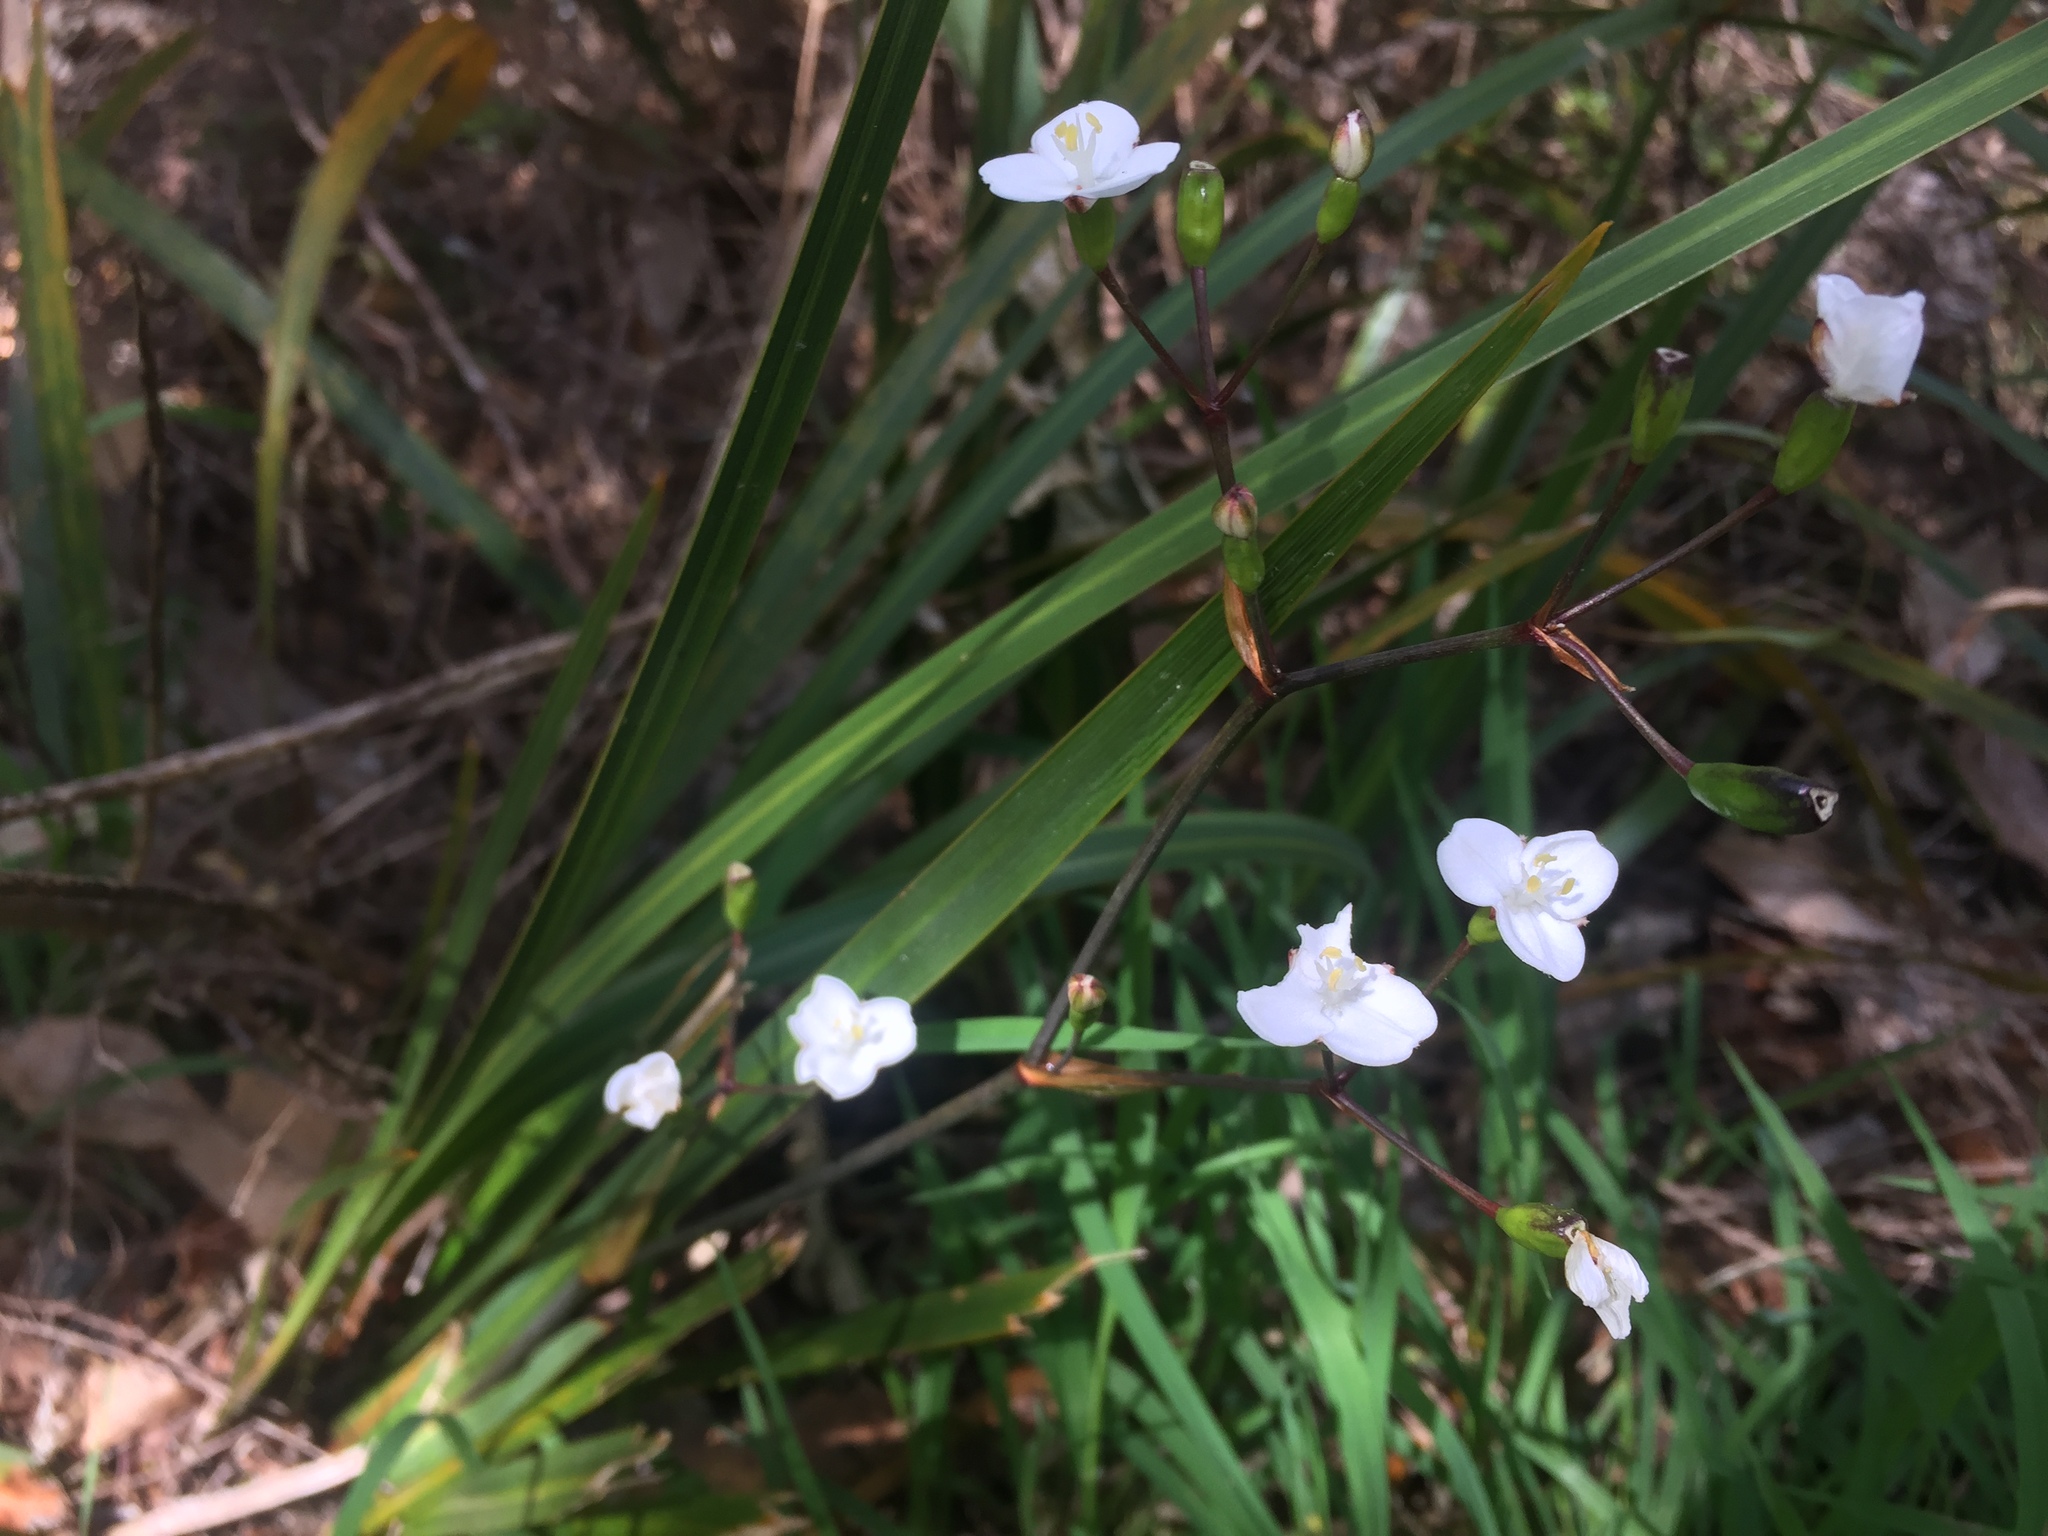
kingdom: Plantae
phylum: Tracheophyta
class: Liliopsida
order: Asparagales
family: Iridaceae
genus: Libertia
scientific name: Libertia ixioides
